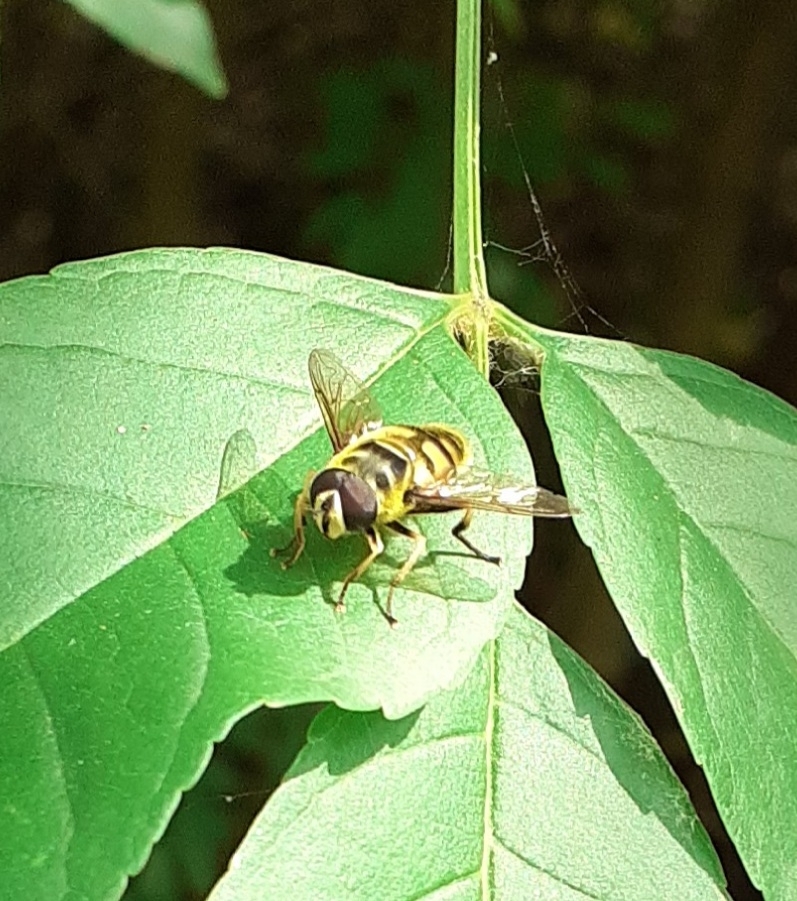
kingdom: Animalia
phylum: Arthropoda
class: Insecta
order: Diptera
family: Syrphidae
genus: Myathropa
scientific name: Myathropa florea
